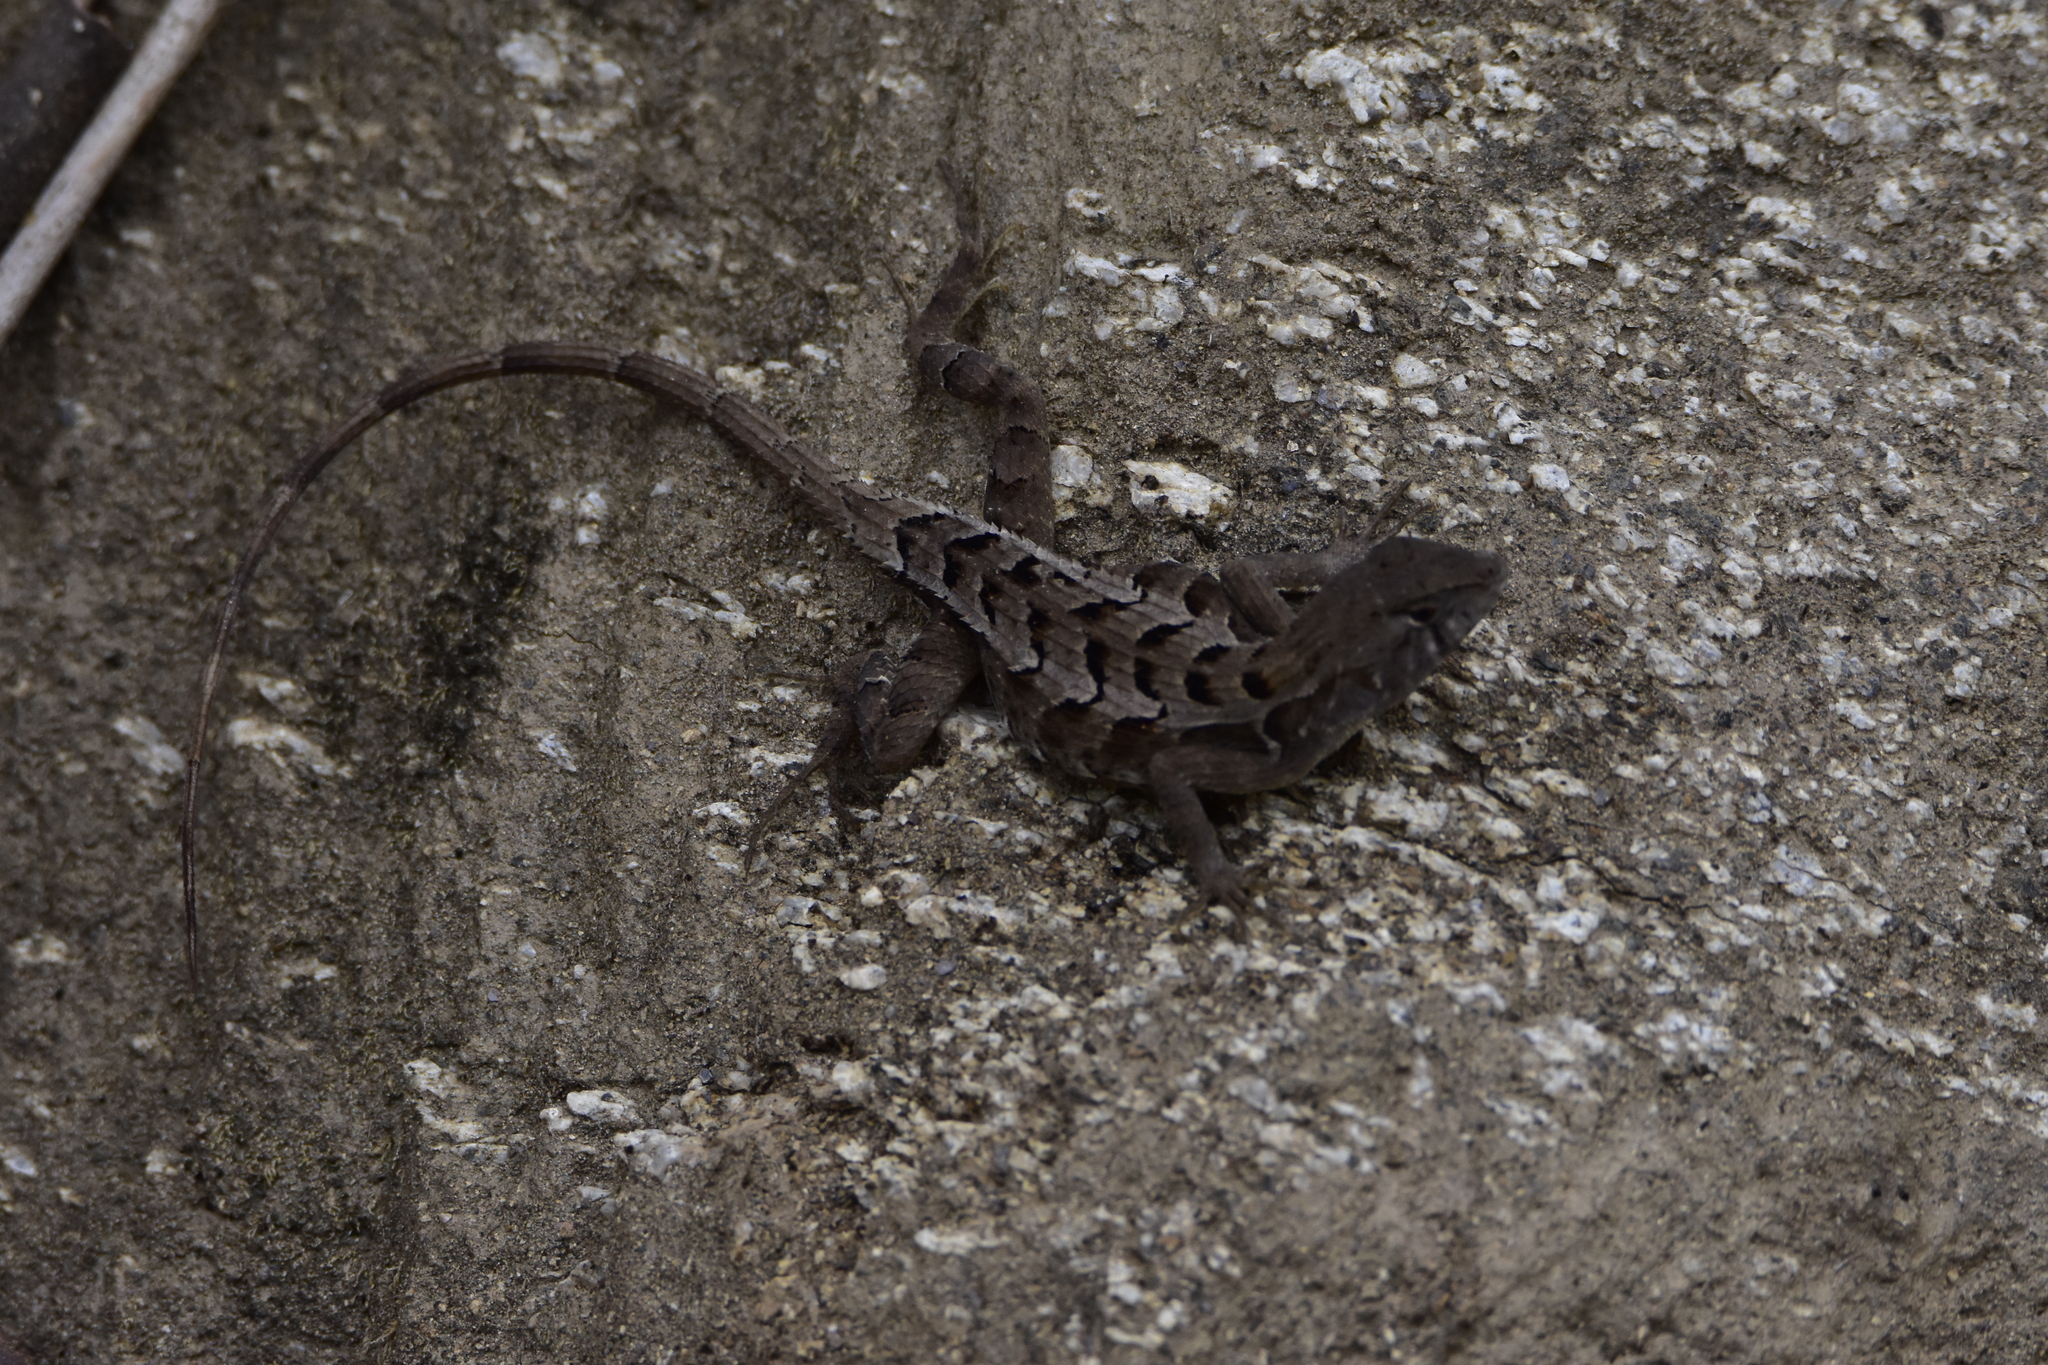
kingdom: Animalia
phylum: Chordata
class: Squamata
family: Phrynosomatidae
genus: Sceloporus
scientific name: Sceloporus utiformis
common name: Antesator
